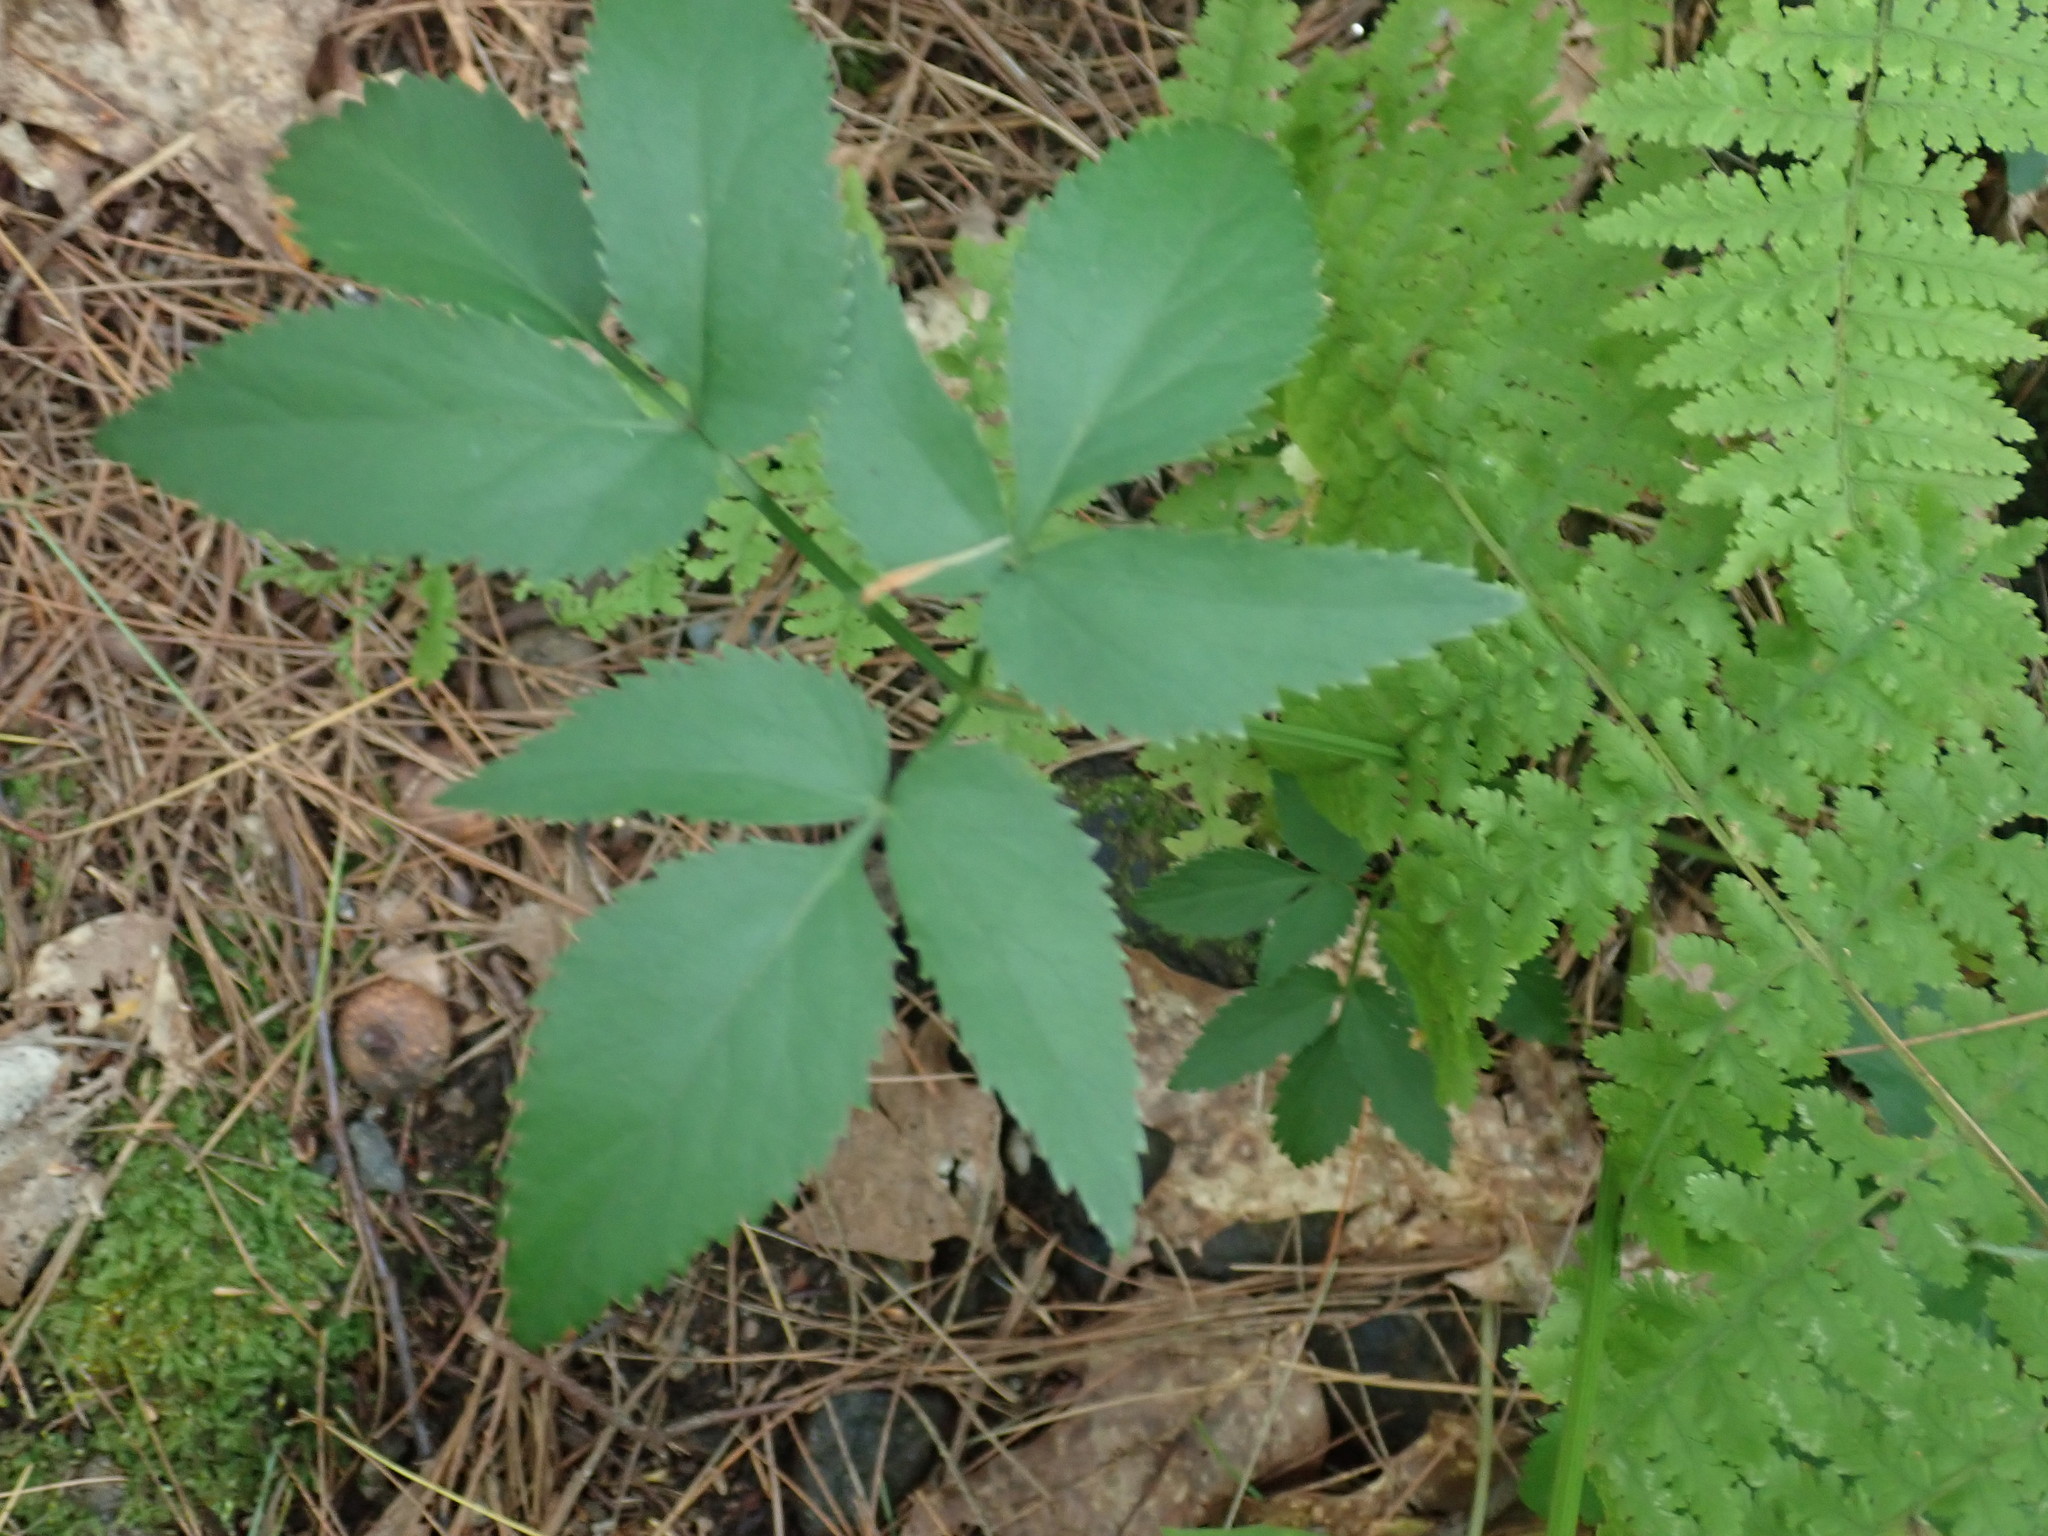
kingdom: Plantae
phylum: Tracheophyta
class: Magnoliopsida
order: Apiales
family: Apiaceae
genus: Zizia
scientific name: Zizia aurea
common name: Golden alexanders
